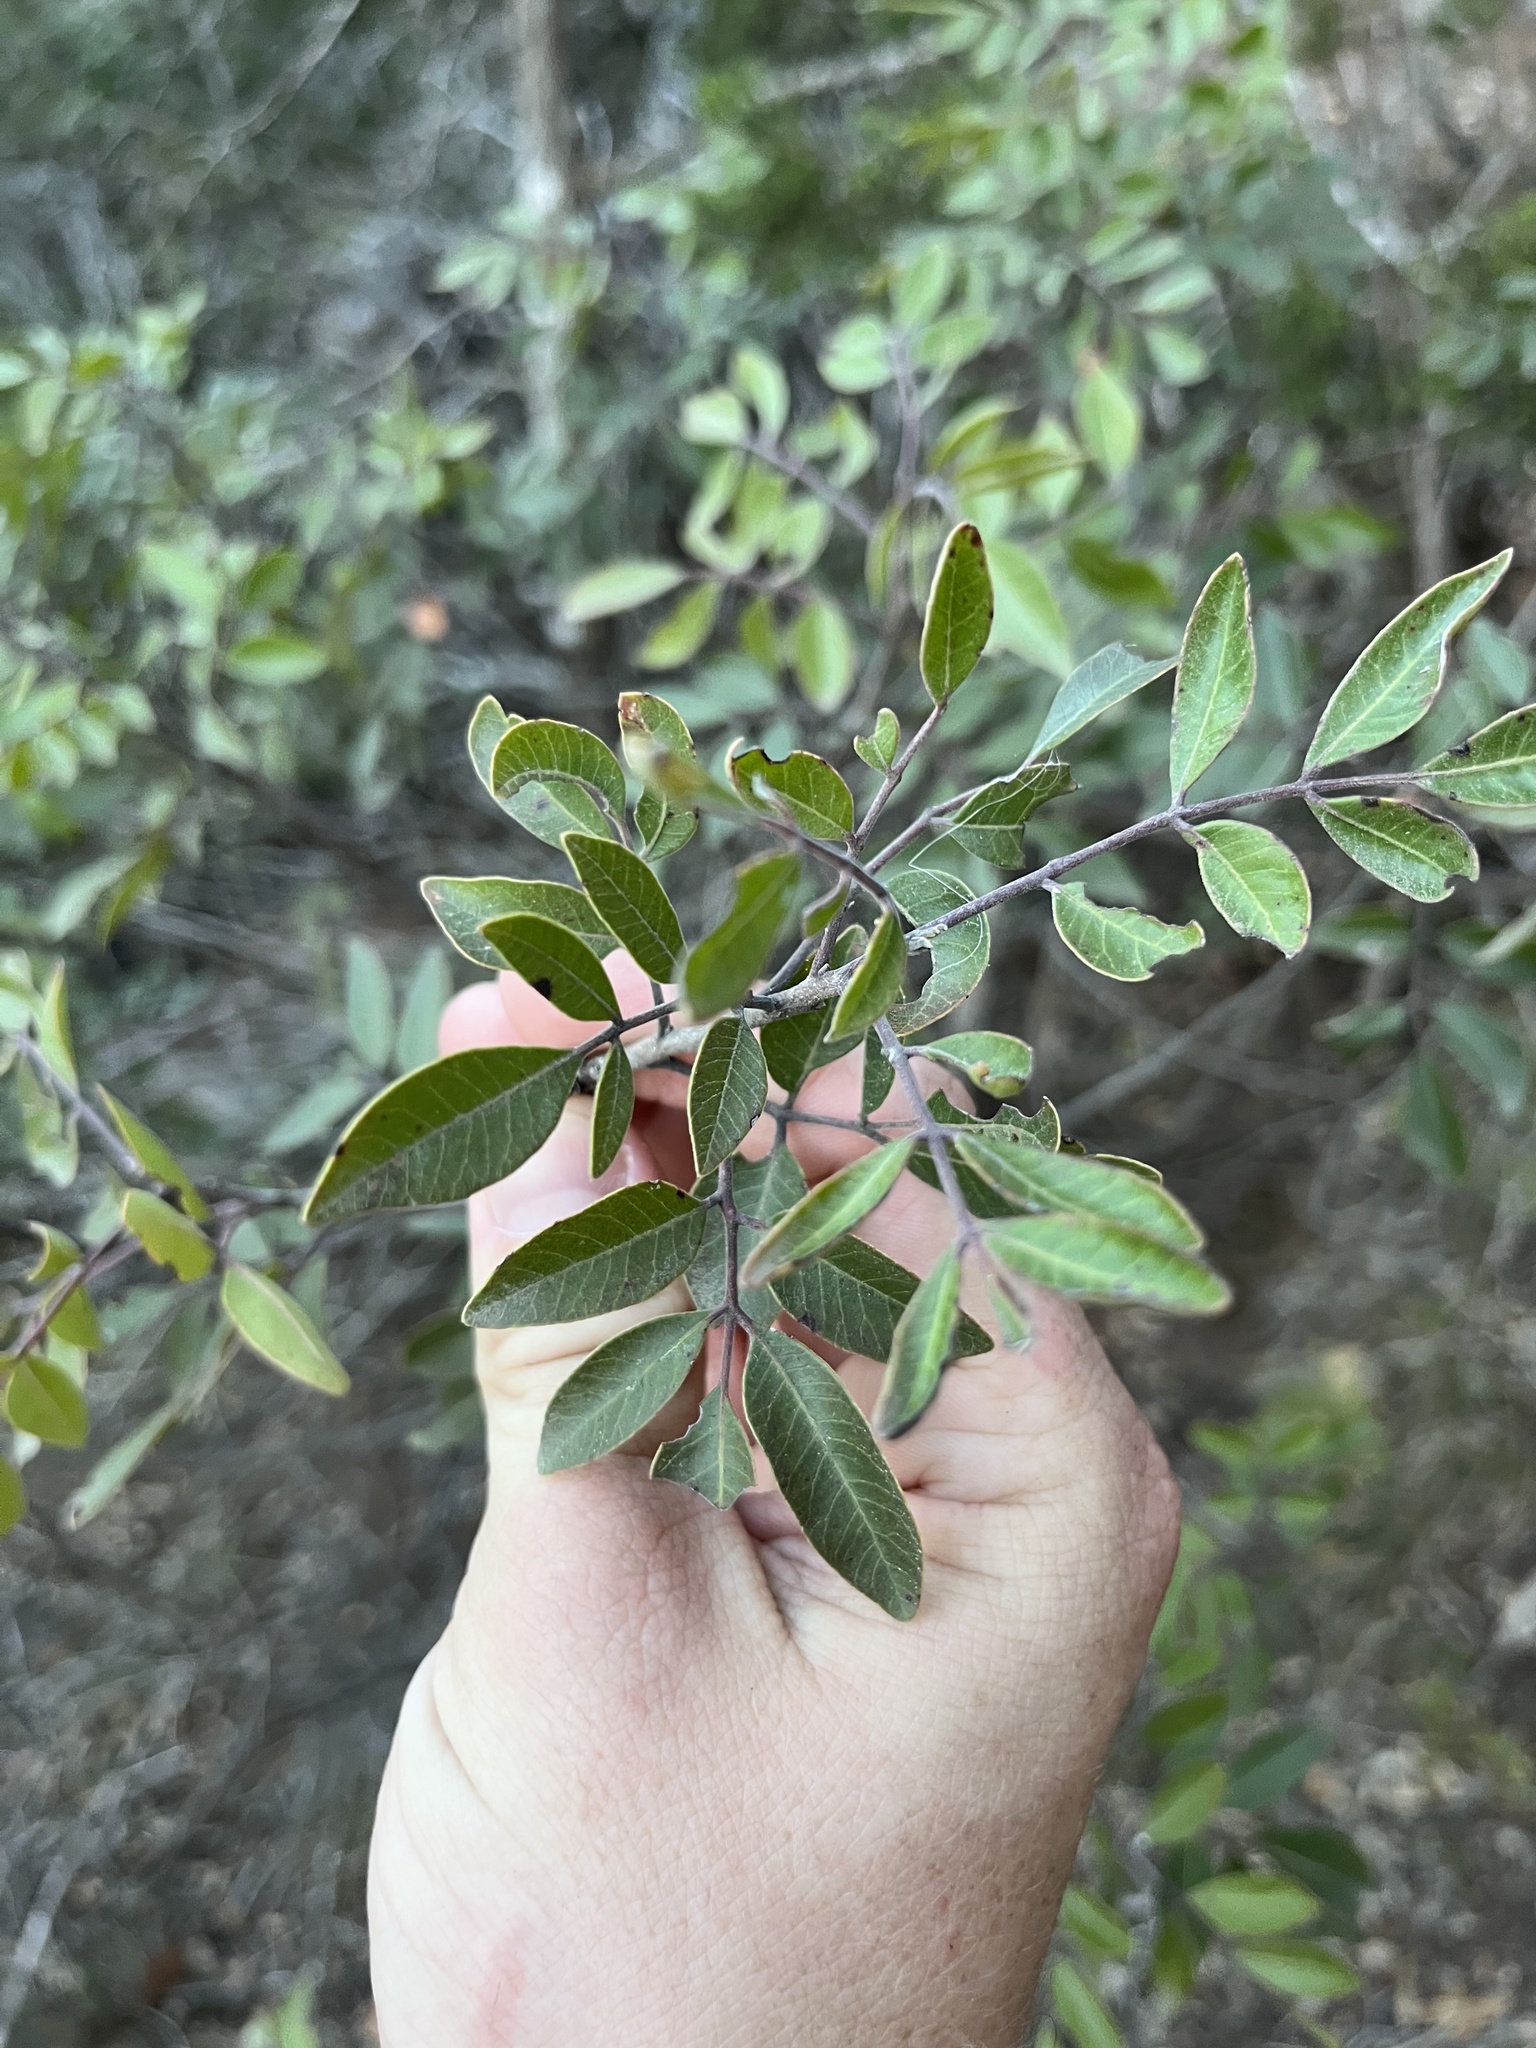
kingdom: Plantae
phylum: Tracheophyta
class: Magnoliopsida
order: Sapindales
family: Anacardiaceae
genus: Rhus
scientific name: Rhus virens
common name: Evergreen sumac
